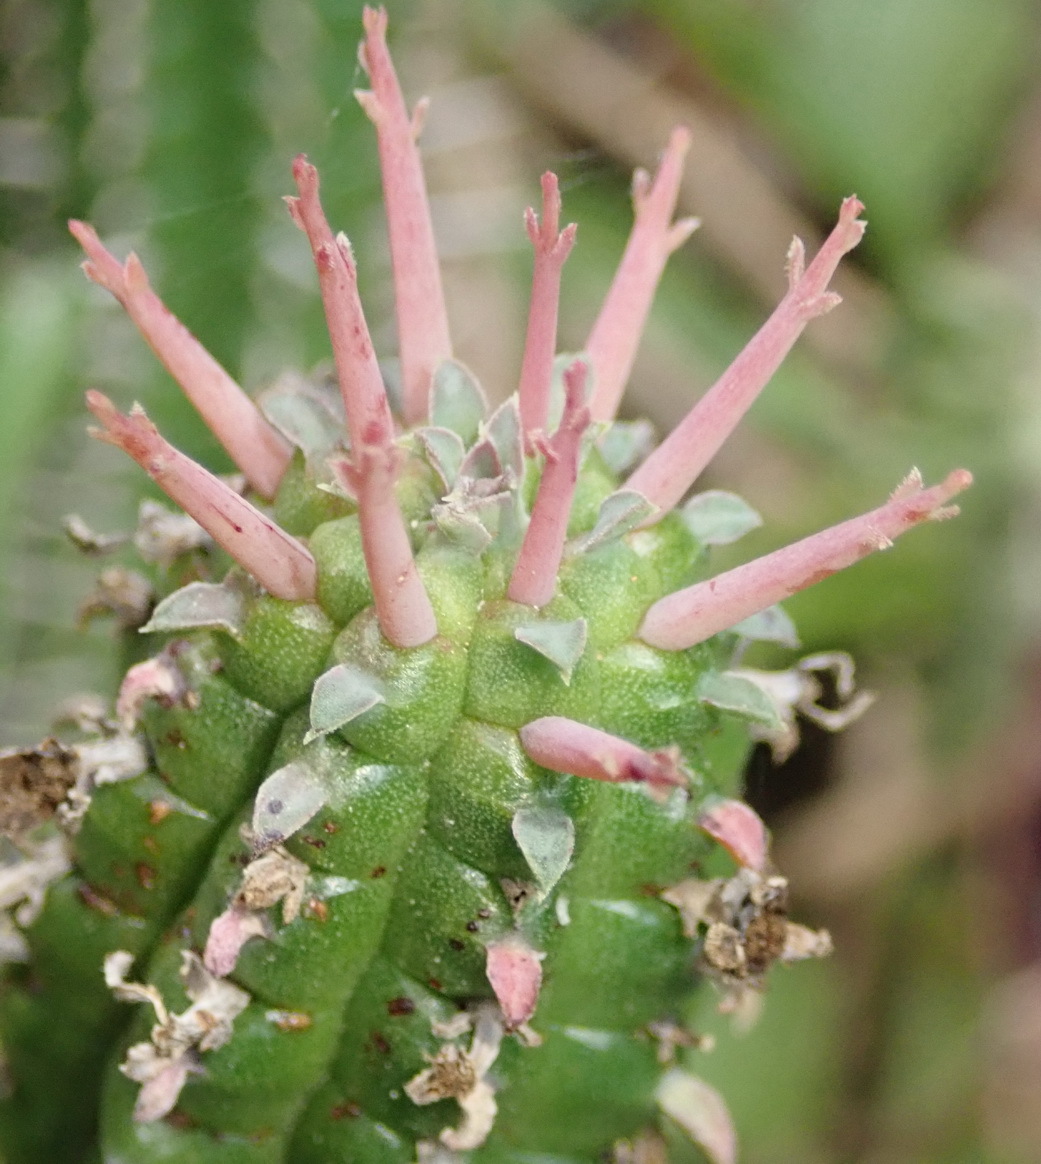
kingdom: Plantae
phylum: Tracheophyta
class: Magnoliopsida
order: Malpighiales
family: Euphorbiaceae
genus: Euphorbia
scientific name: Euphorbia mammillaris
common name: Corkscrew
